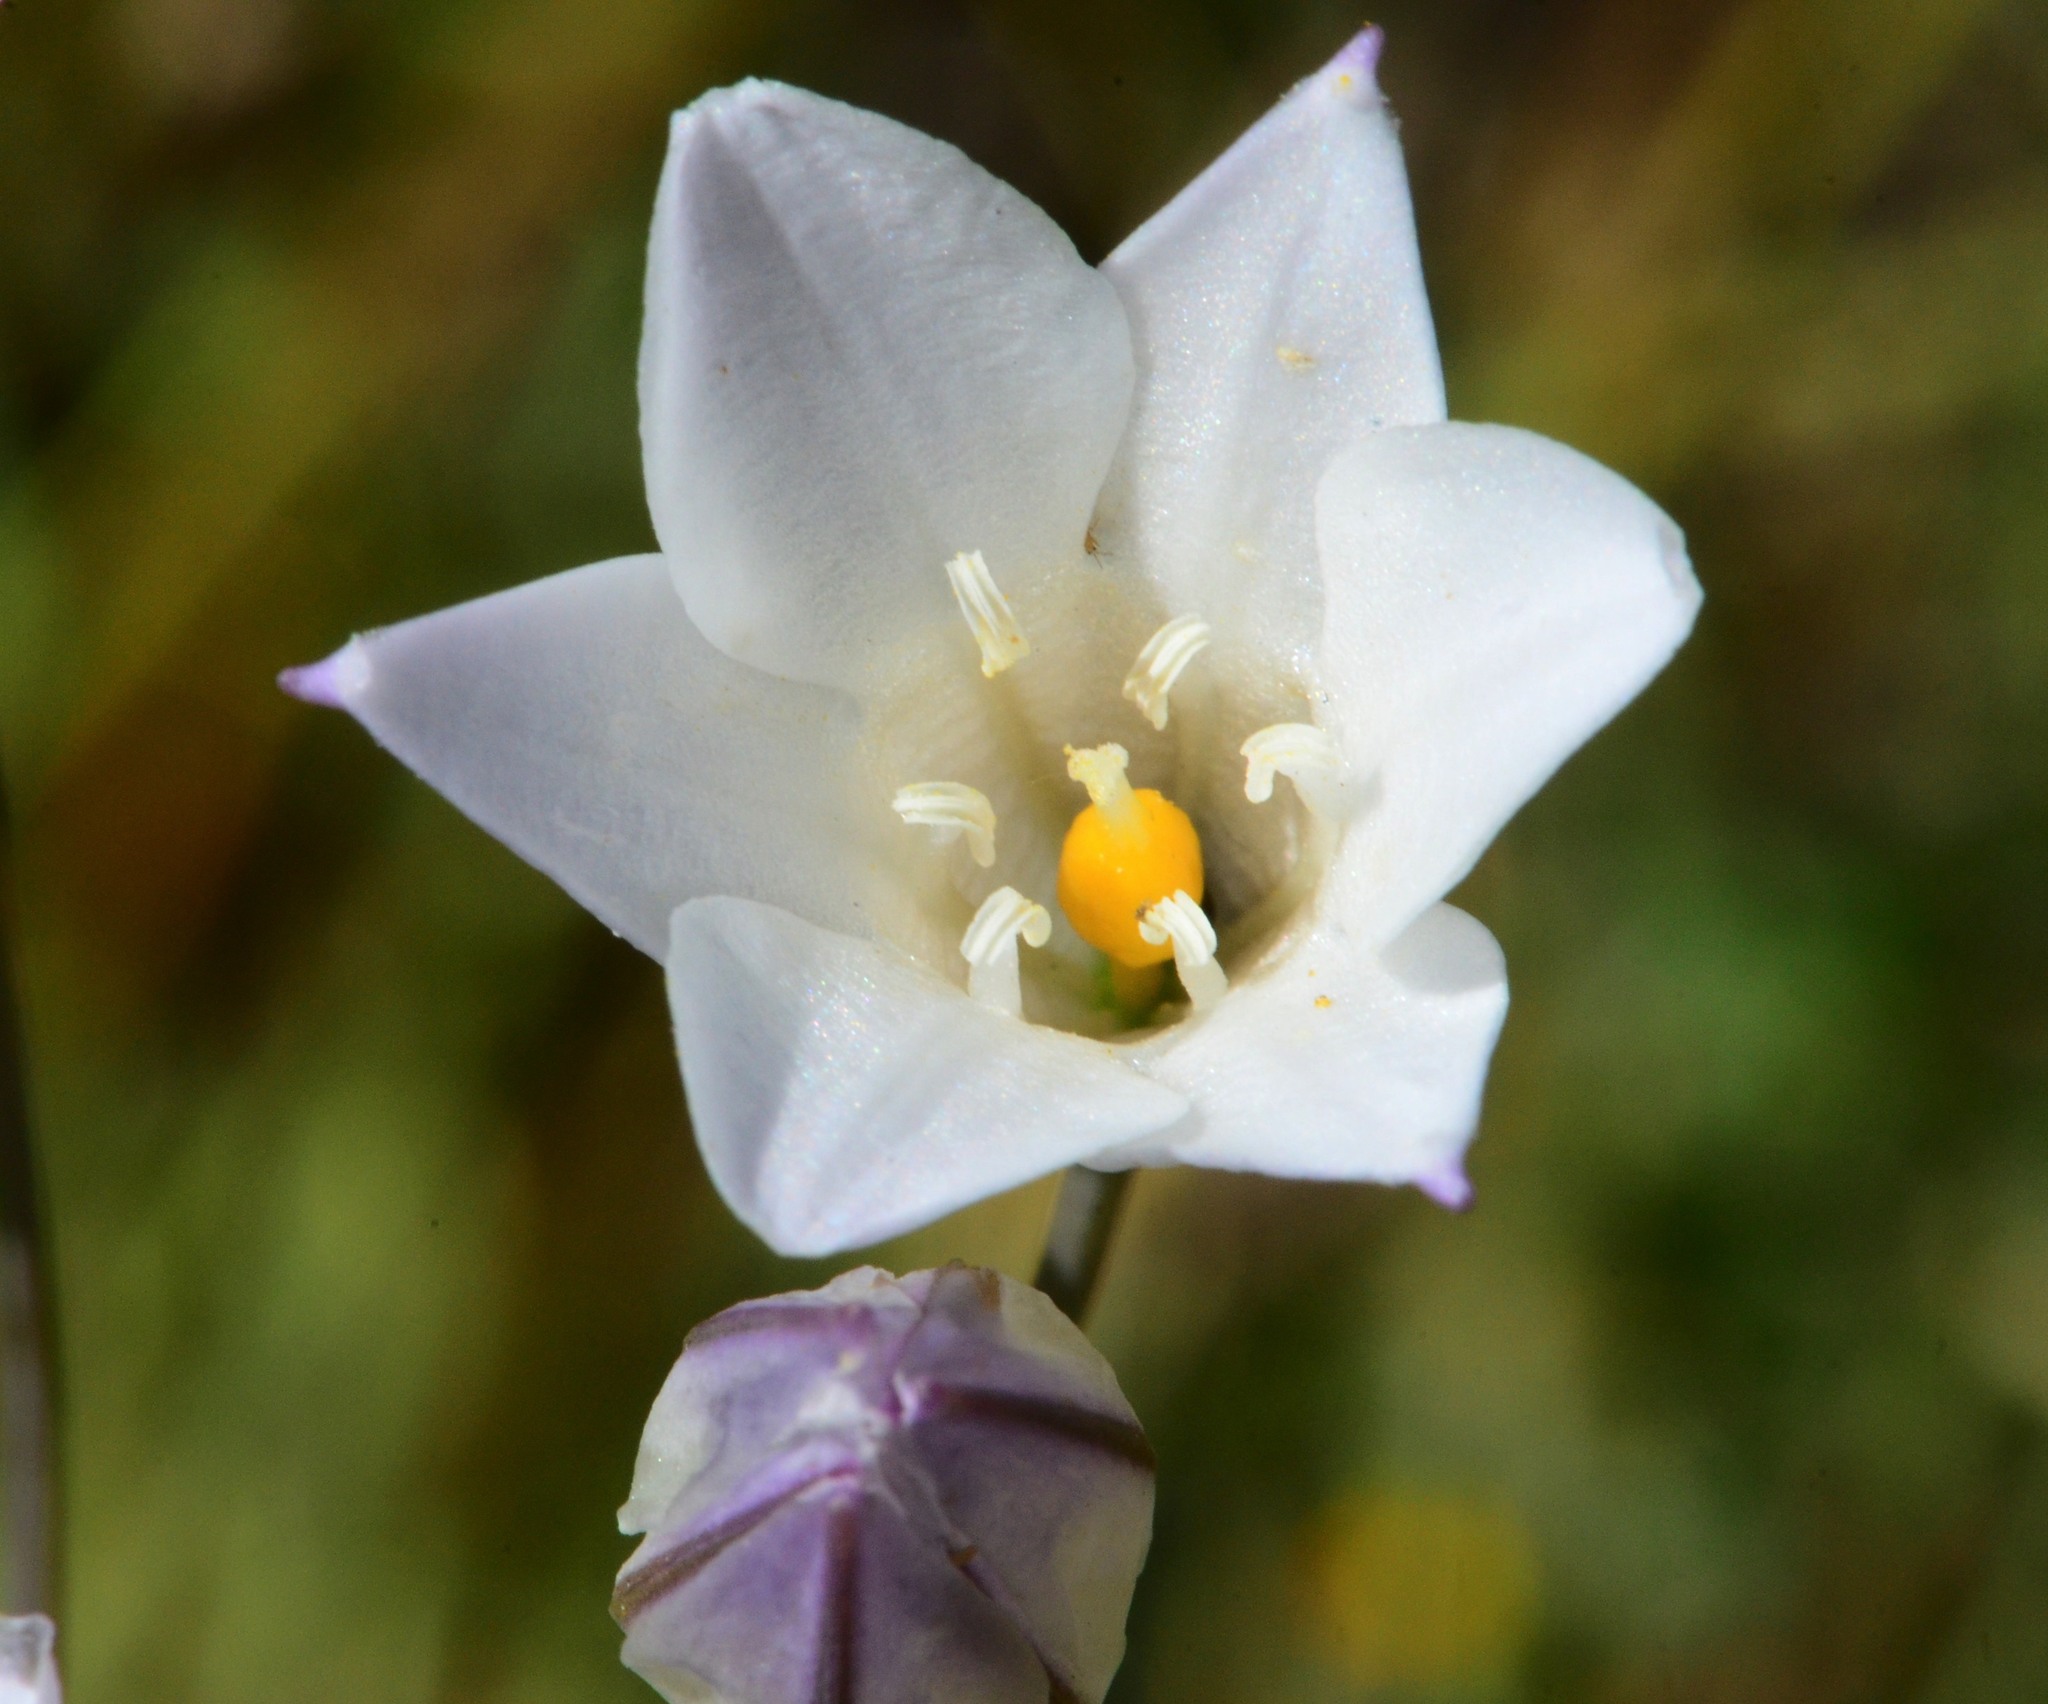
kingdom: Plantae
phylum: Tracheophyta
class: Liliopsida
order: Asparagales
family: Asparagaceae
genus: Triteleia
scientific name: Triteleia peduncularis
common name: Long-ray brodiaea
